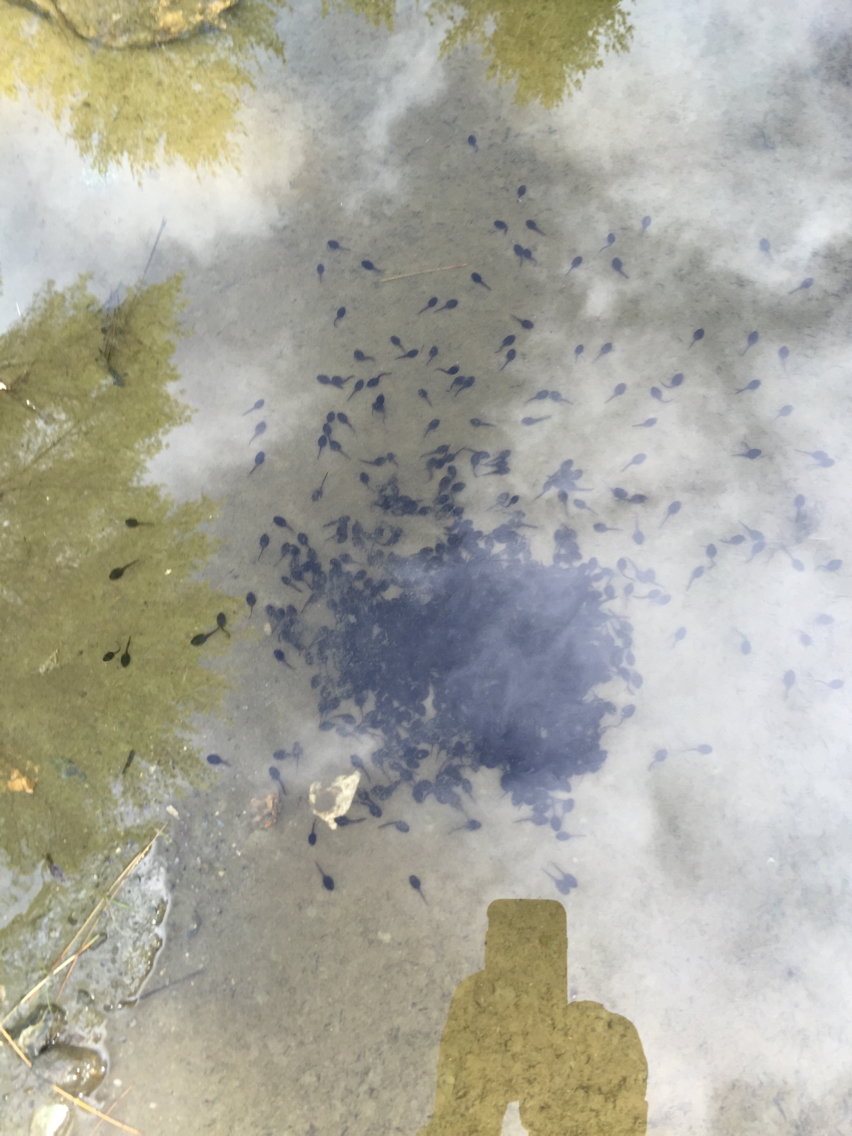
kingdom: Animalia
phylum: Chordata
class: Amphibia
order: Anura
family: Bufonidae
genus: Anaxyrus
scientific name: Anaxyrus americanus
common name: American toad
